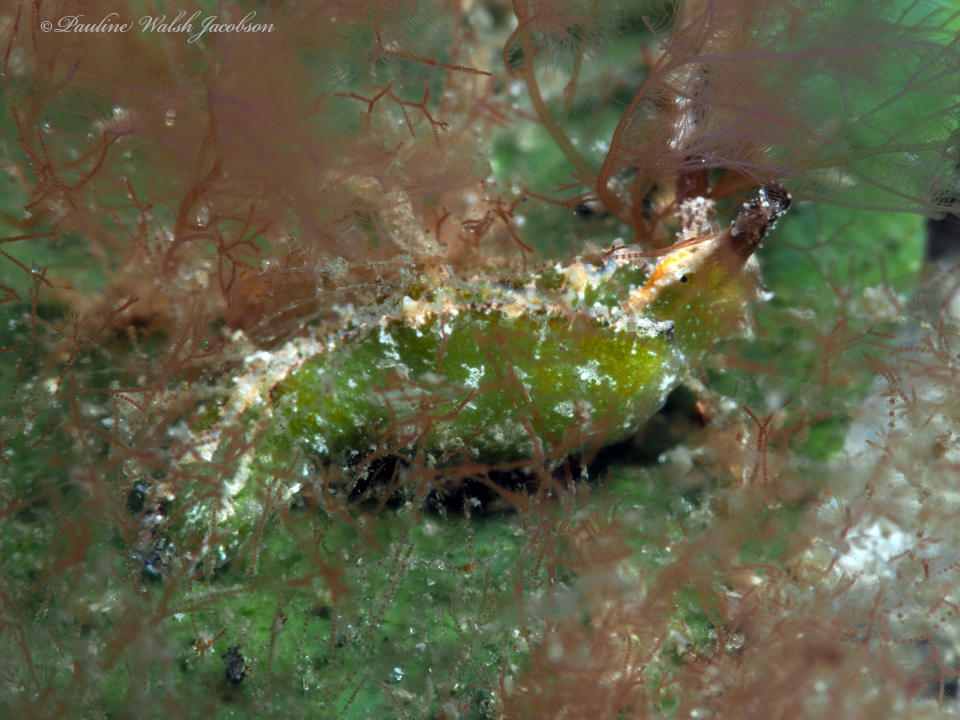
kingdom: Animalia
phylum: Mollusca
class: Gastropoda
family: Plakobranchidae
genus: Elysia
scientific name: Elysia zuleicae
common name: Zuleica's elysia
